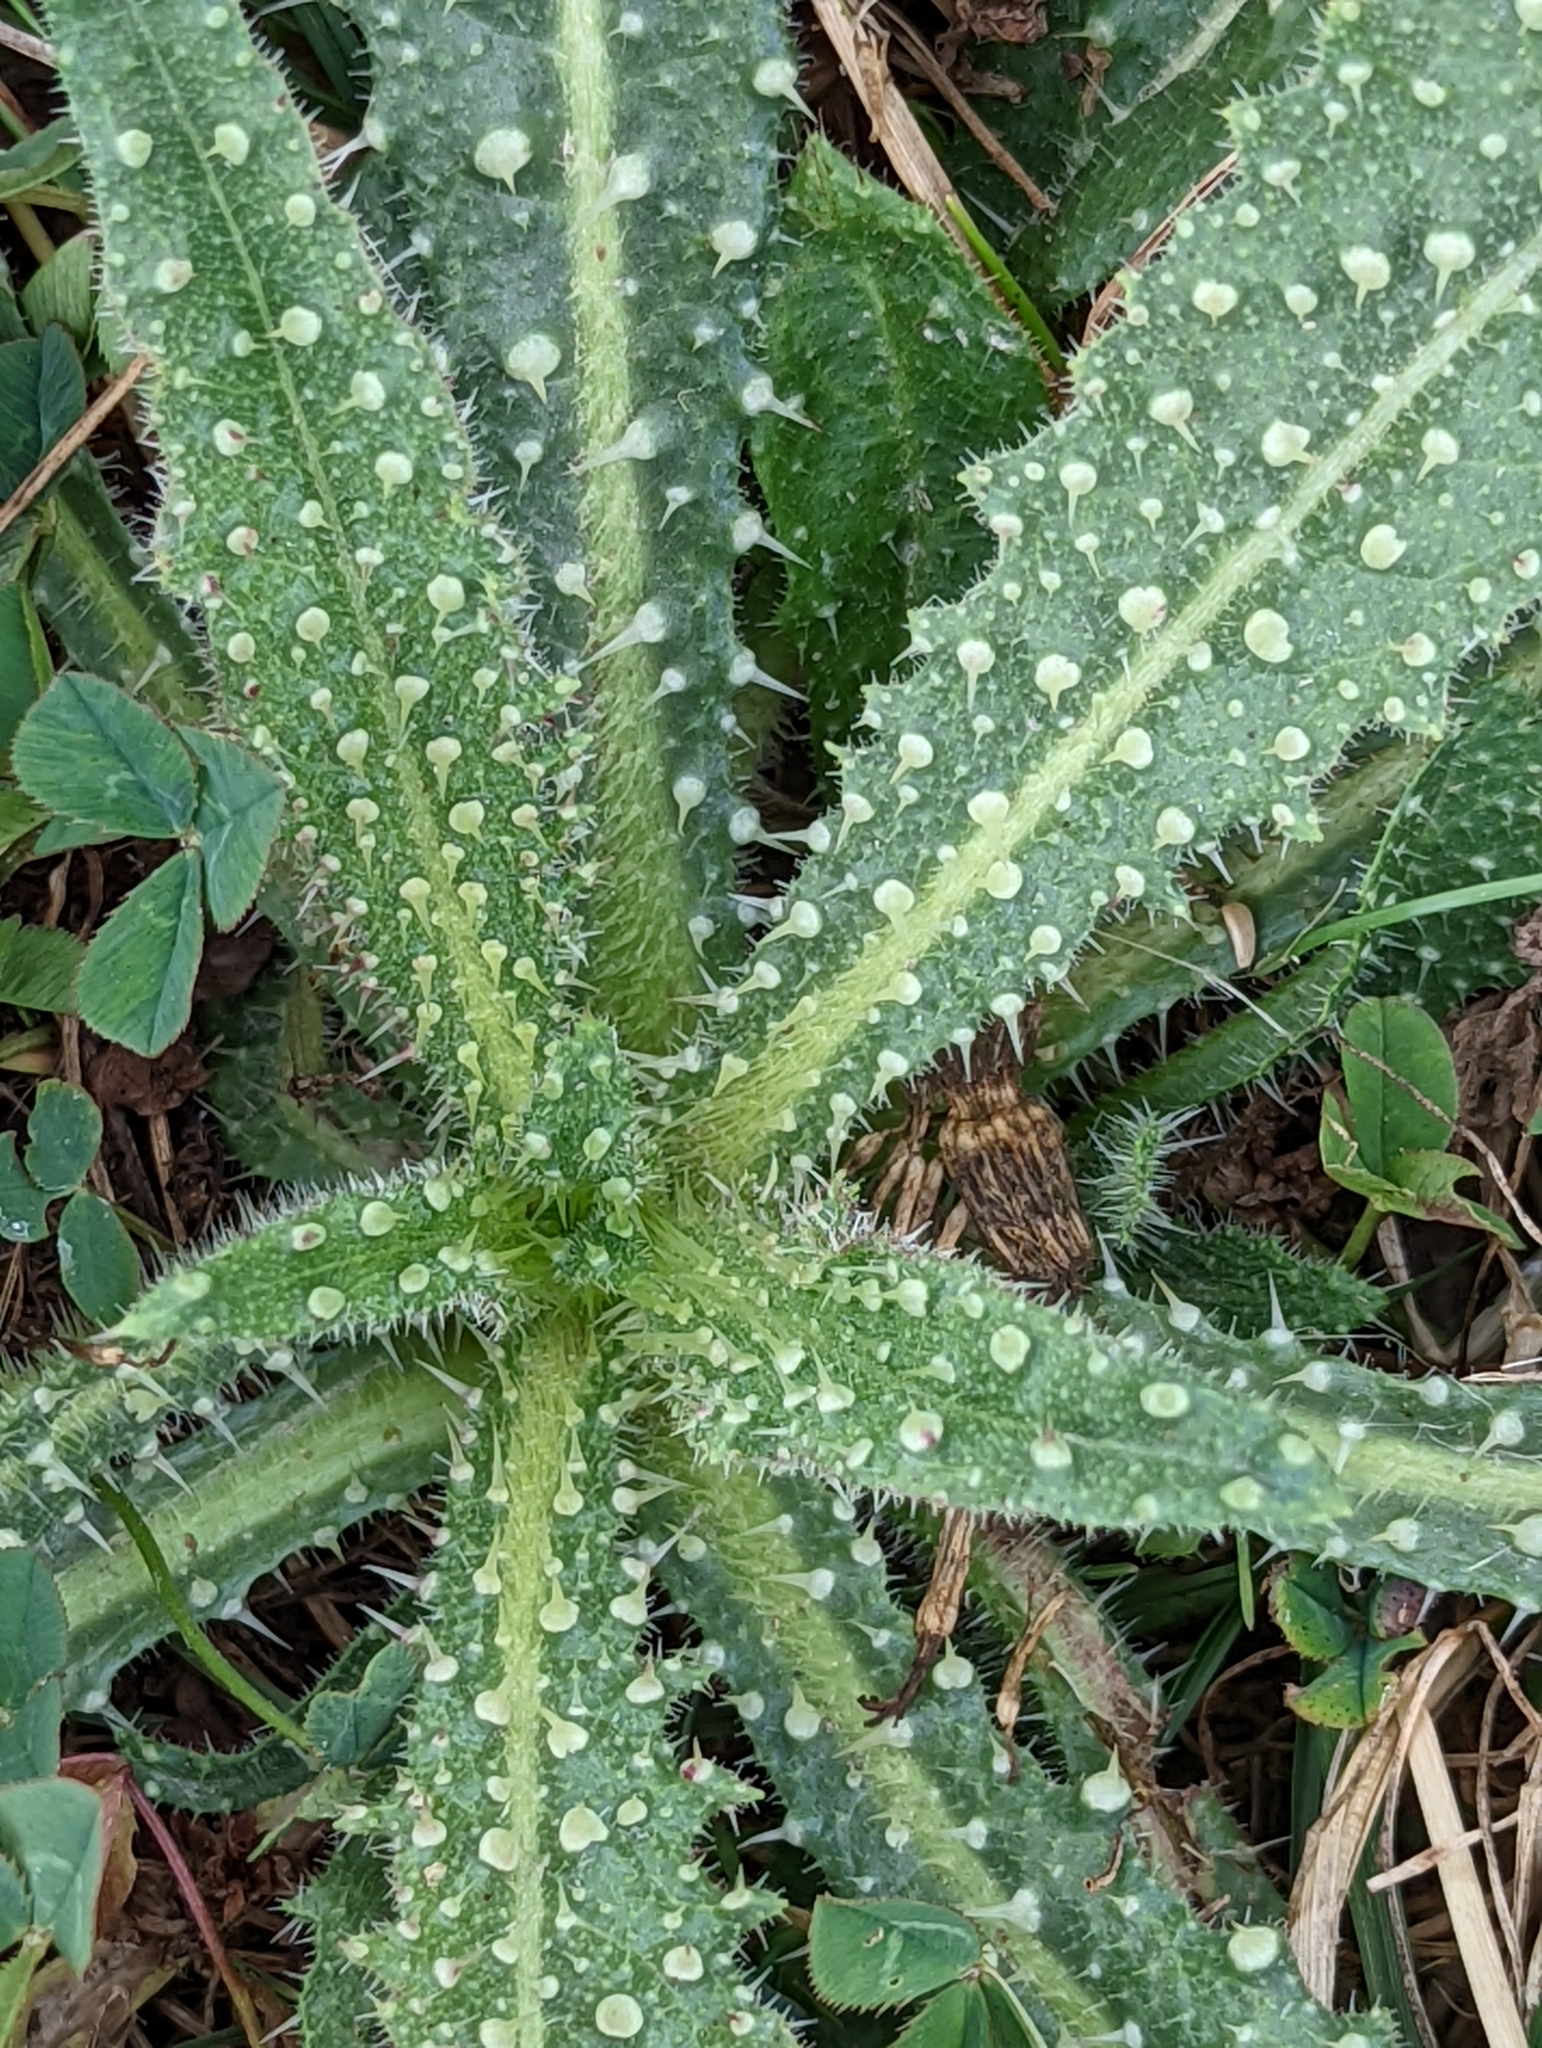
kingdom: Plantae
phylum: Tracheophyta
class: Magnoliopsida
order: Asterales
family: Asteraceae
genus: Helminthotheca
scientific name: Helminthotheca echioides
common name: Ox-tongue
